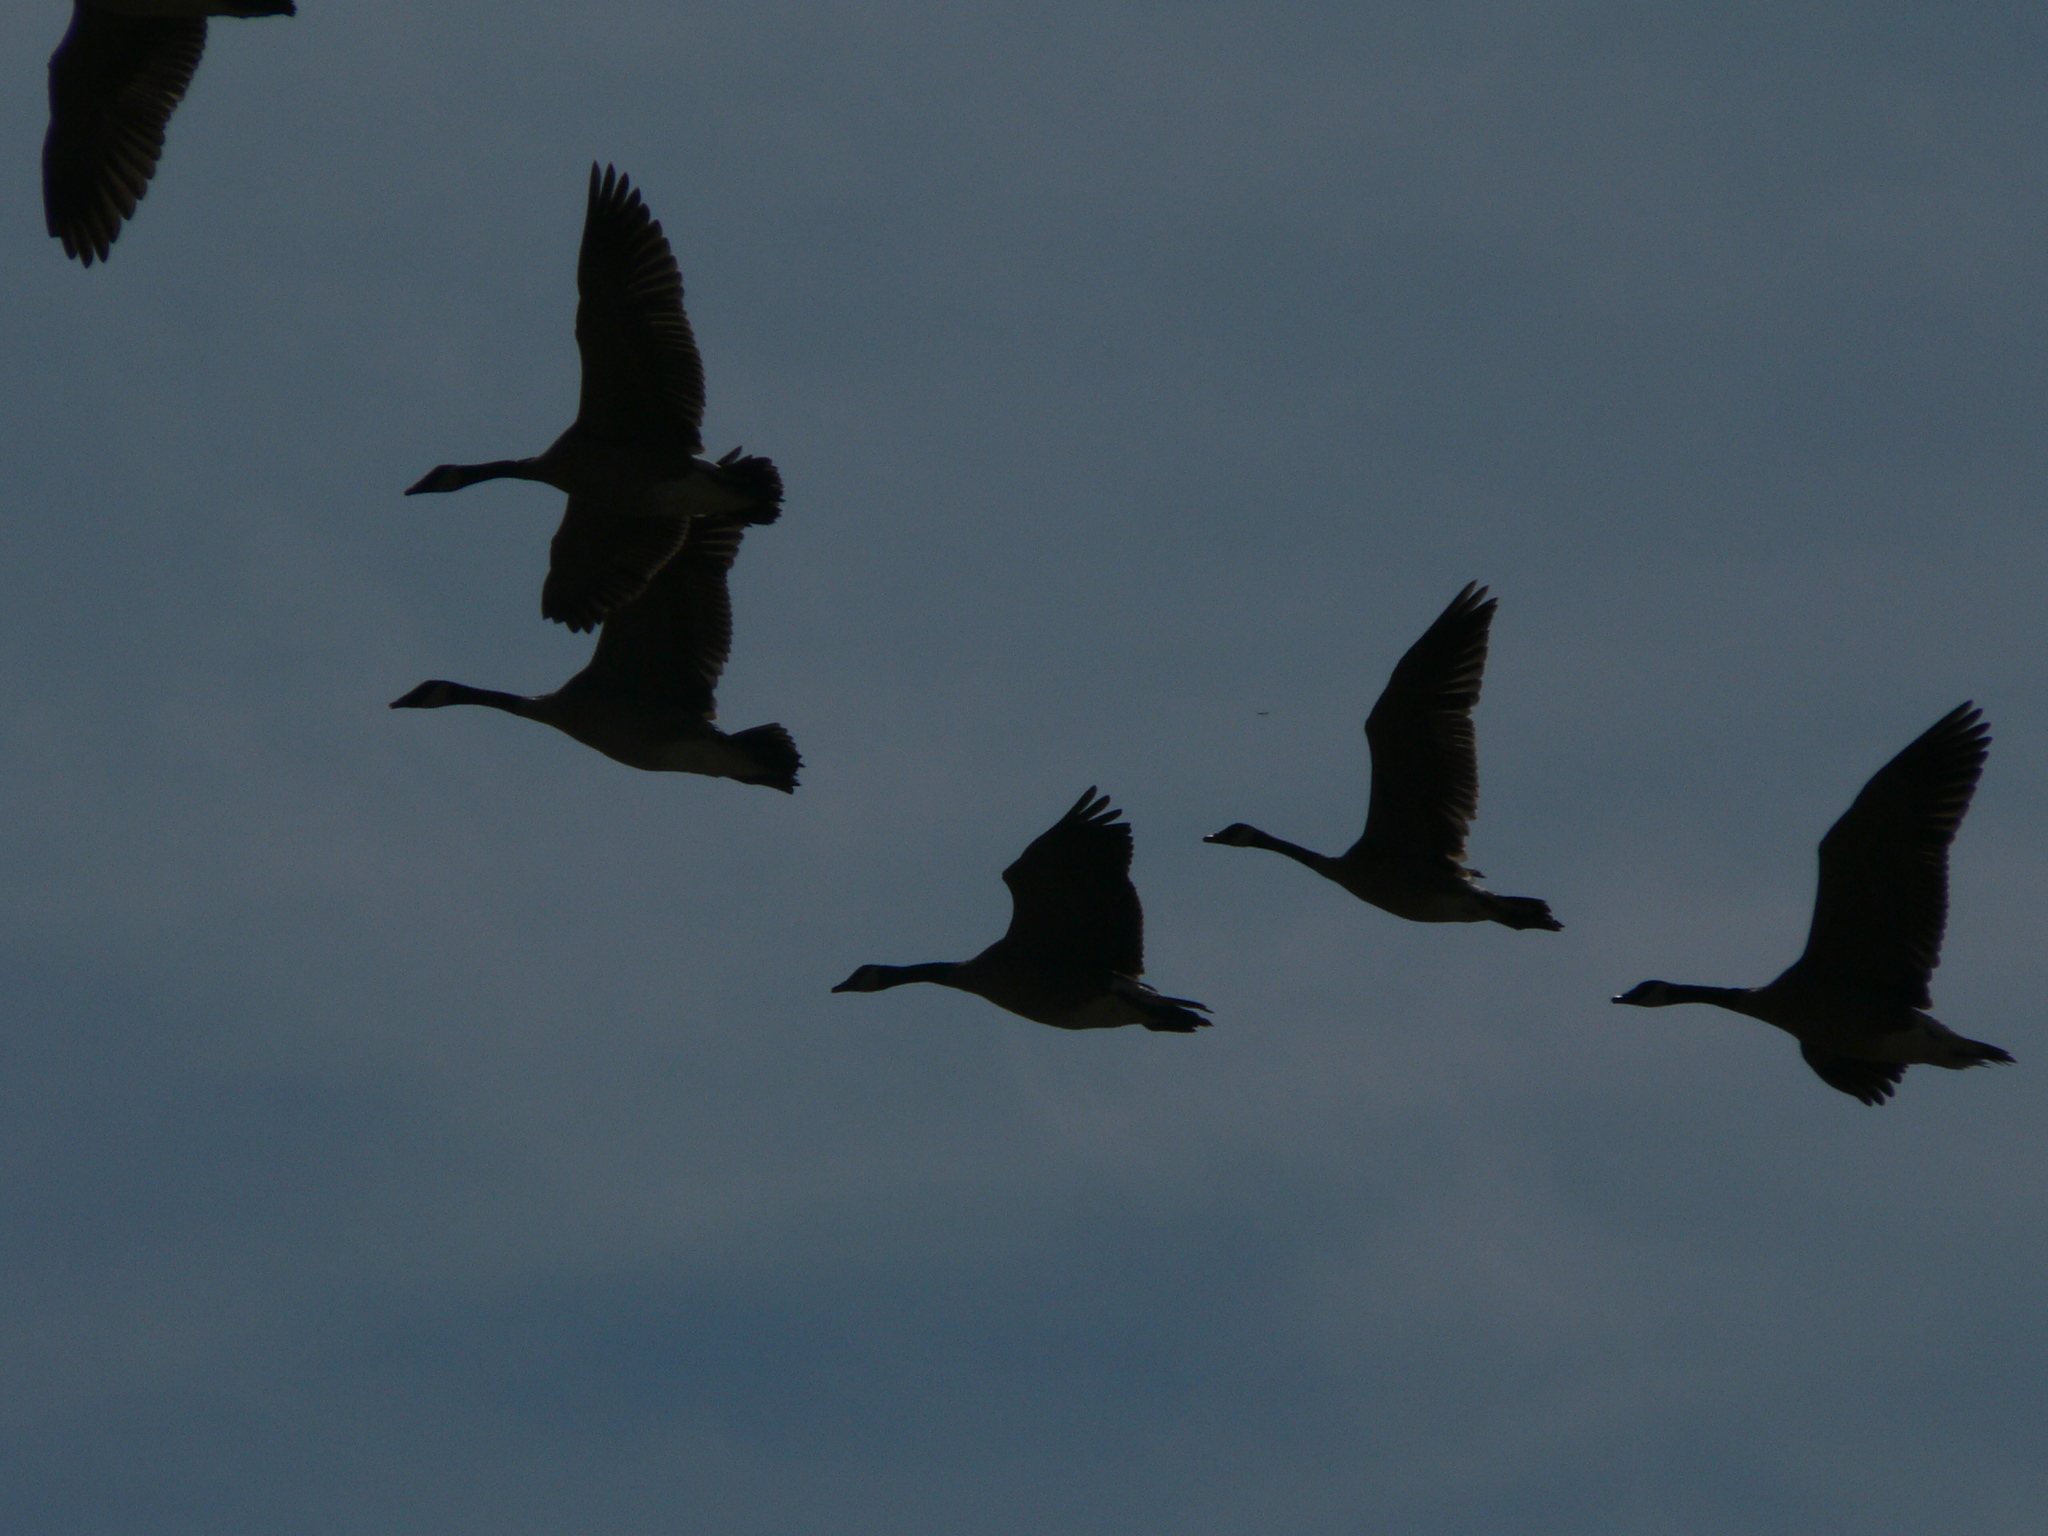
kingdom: Animalia
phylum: Chordata
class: Aves
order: Anseriformes
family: Anatidae
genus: Branta
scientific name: Branta canadensis
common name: Canada goose
